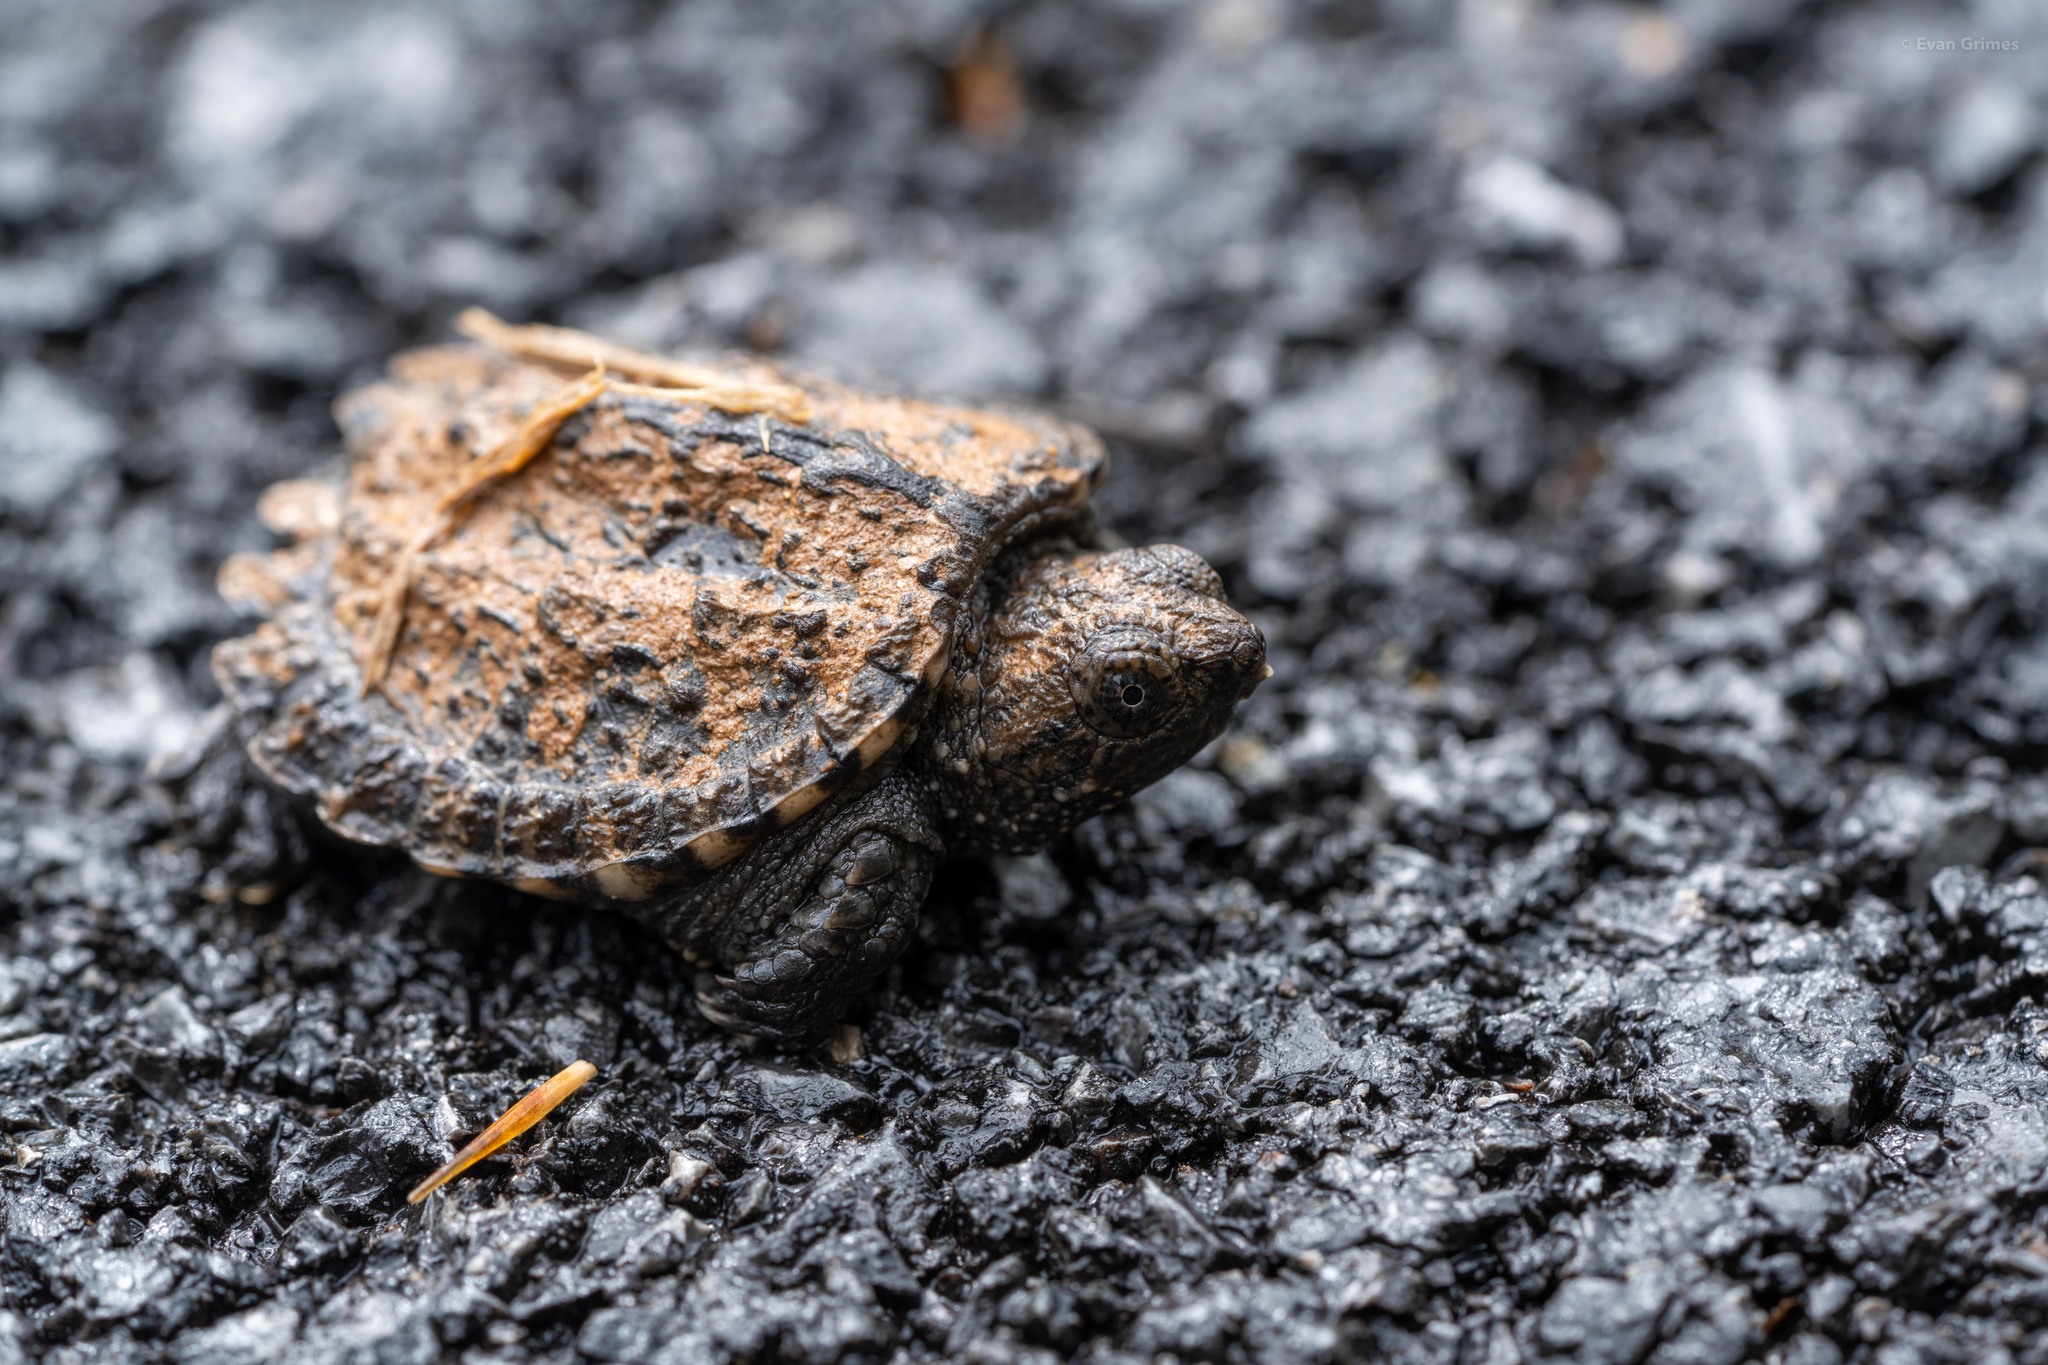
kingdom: Animalia
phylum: Chordata
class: Testudines
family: Chelydridae
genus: Chelydra
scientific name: Chelydra serpentina
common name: Common snapping turtle
